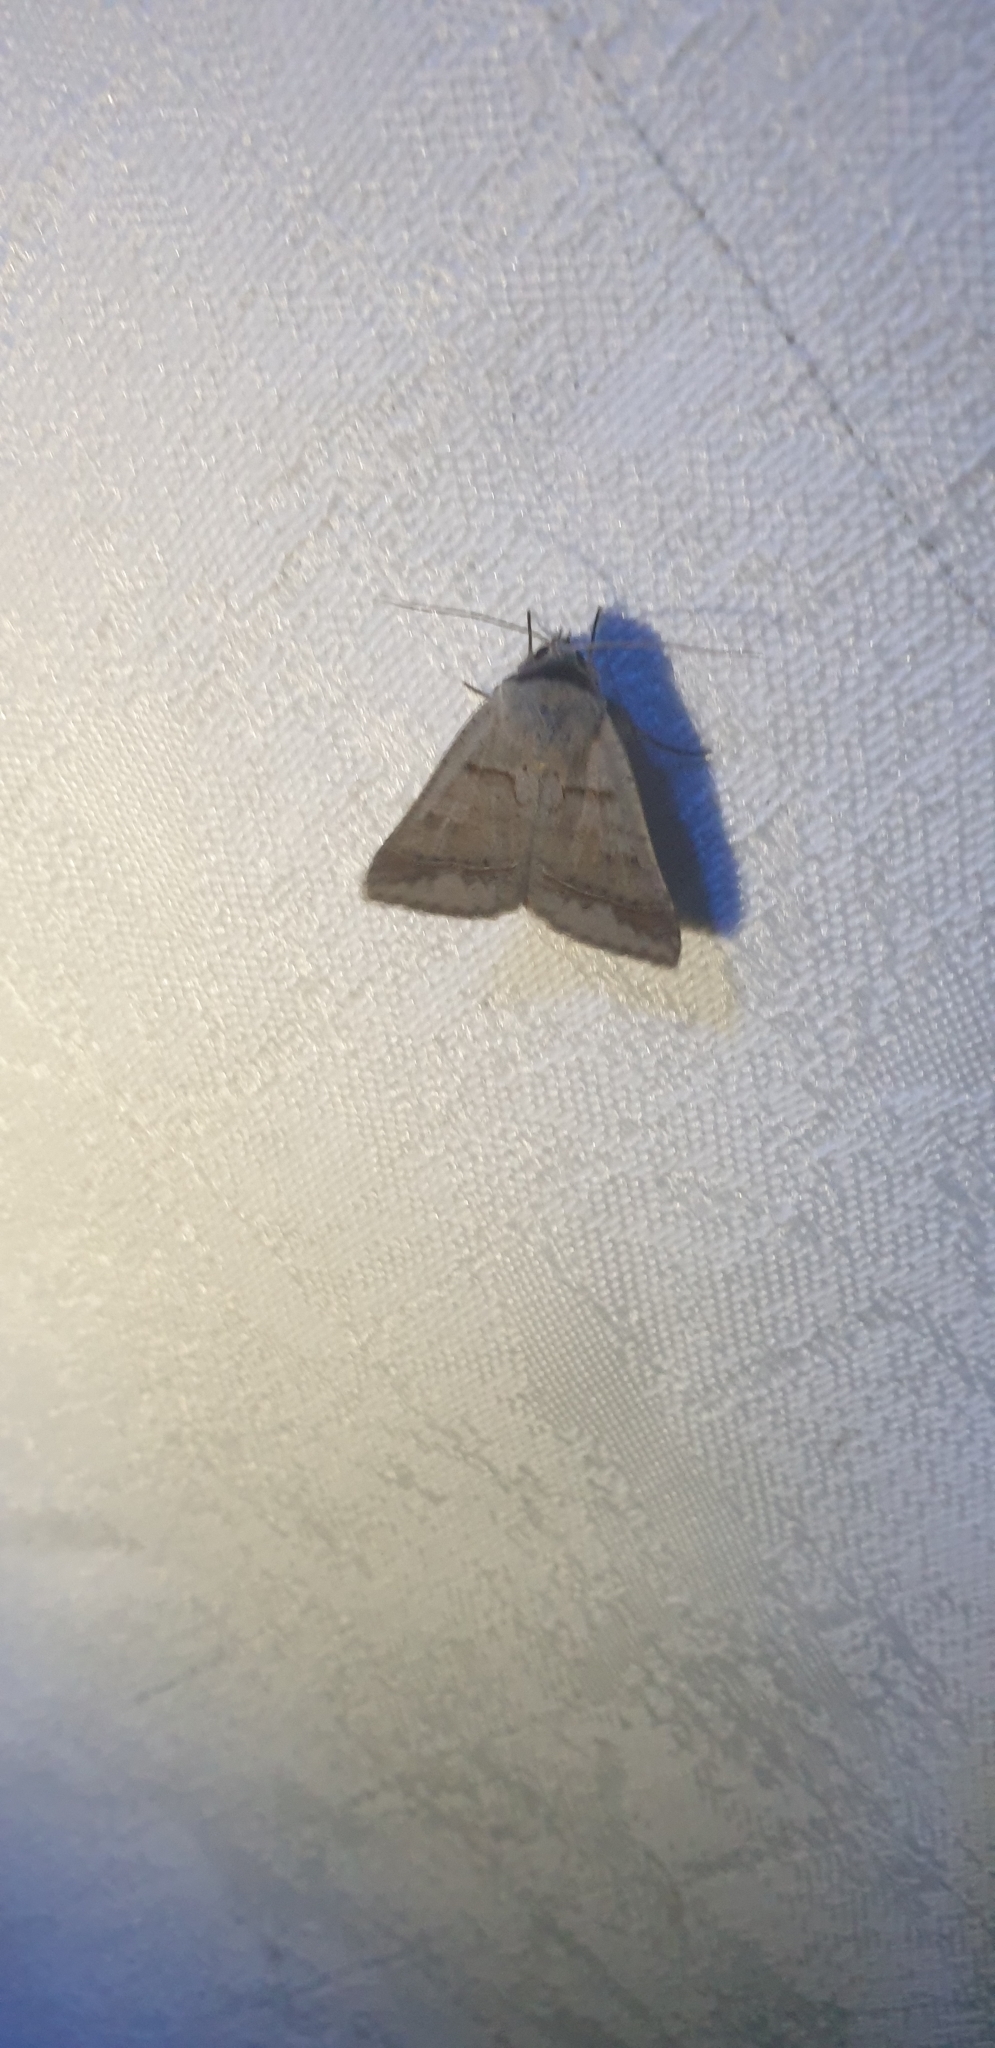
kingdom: Animalia
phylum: Arthropoda
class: Insecta
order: Lepidoptera
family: Erebidae
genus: Pantydia
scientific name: Pantydia sparsa
